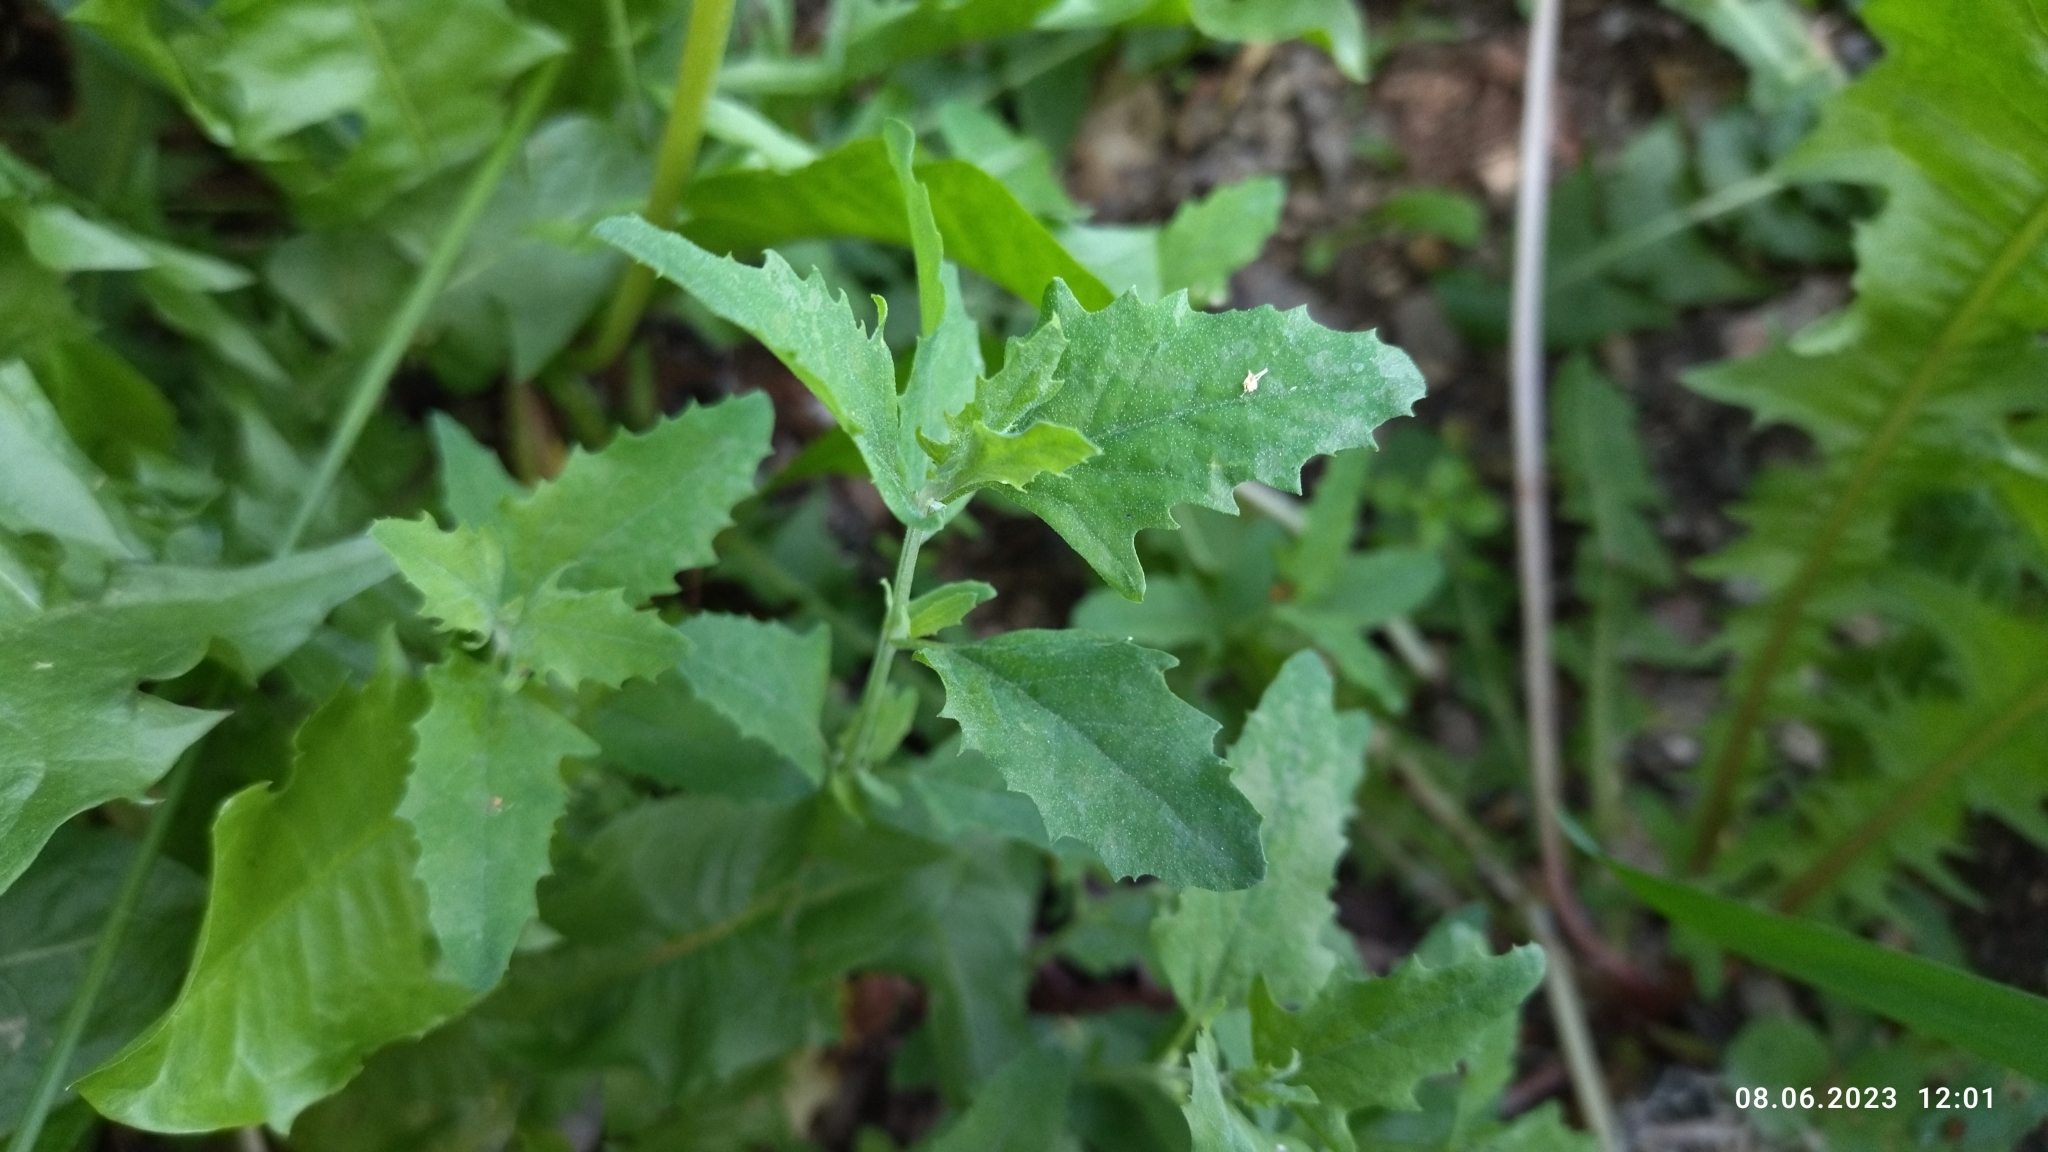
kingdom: Plantae
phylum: Tracheophyta
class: Magnoliopsida
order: Caryophyllales
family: Amaranthaceae
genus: Atriplex
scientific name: Atriplex patula
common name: Common orache
